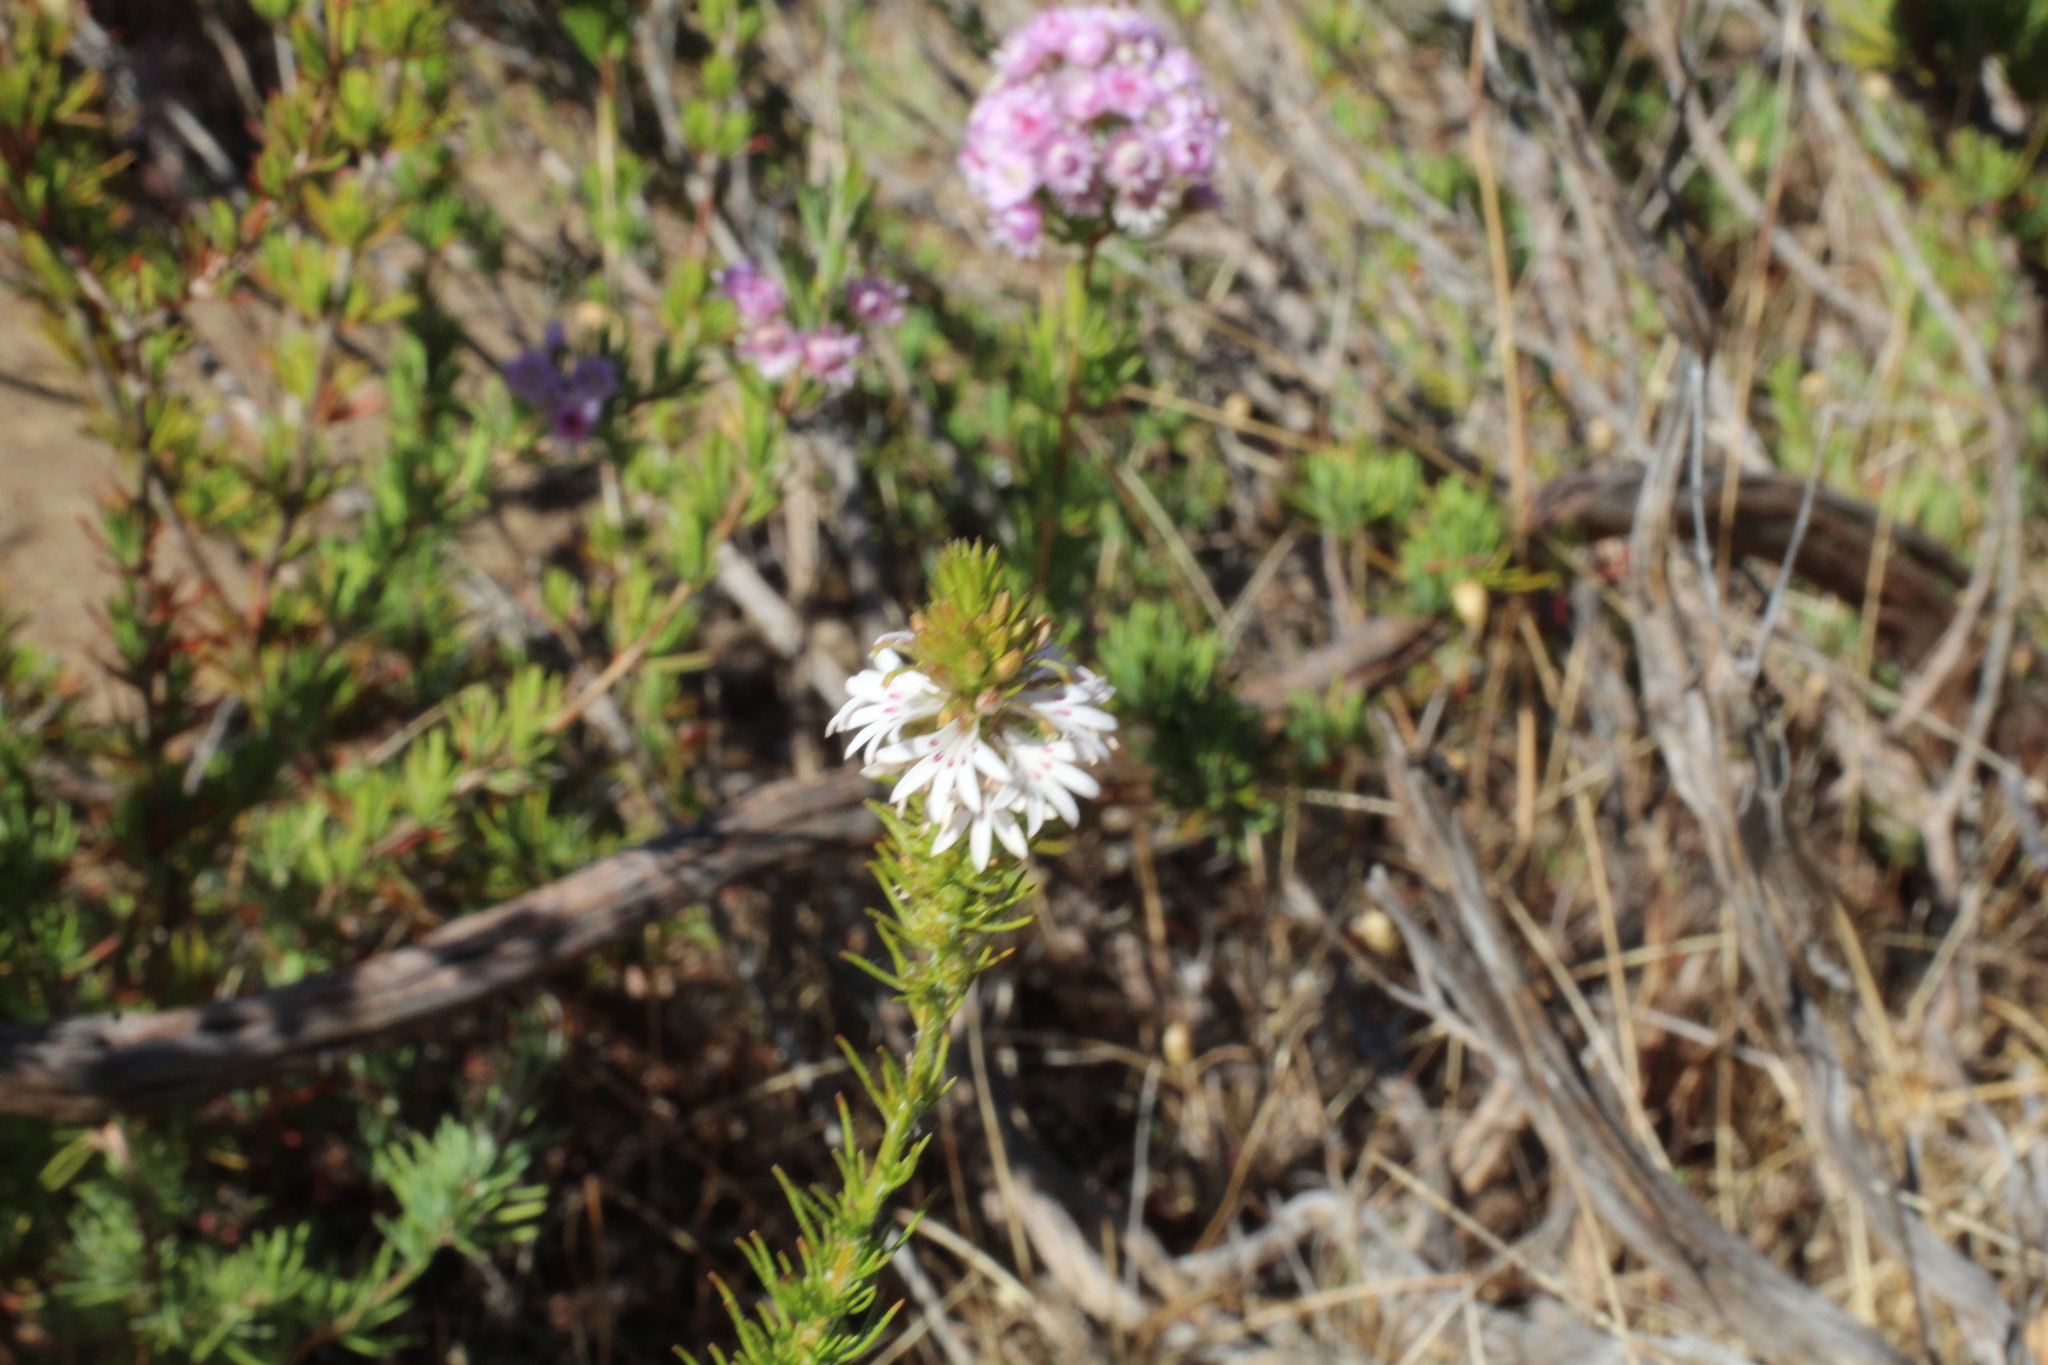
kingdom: Plantae
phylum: Tracheophyta
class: Magnoliopsida
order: Asterales
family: Goodeniaceae
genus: Goodenia
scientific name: Goodenia drummondii
